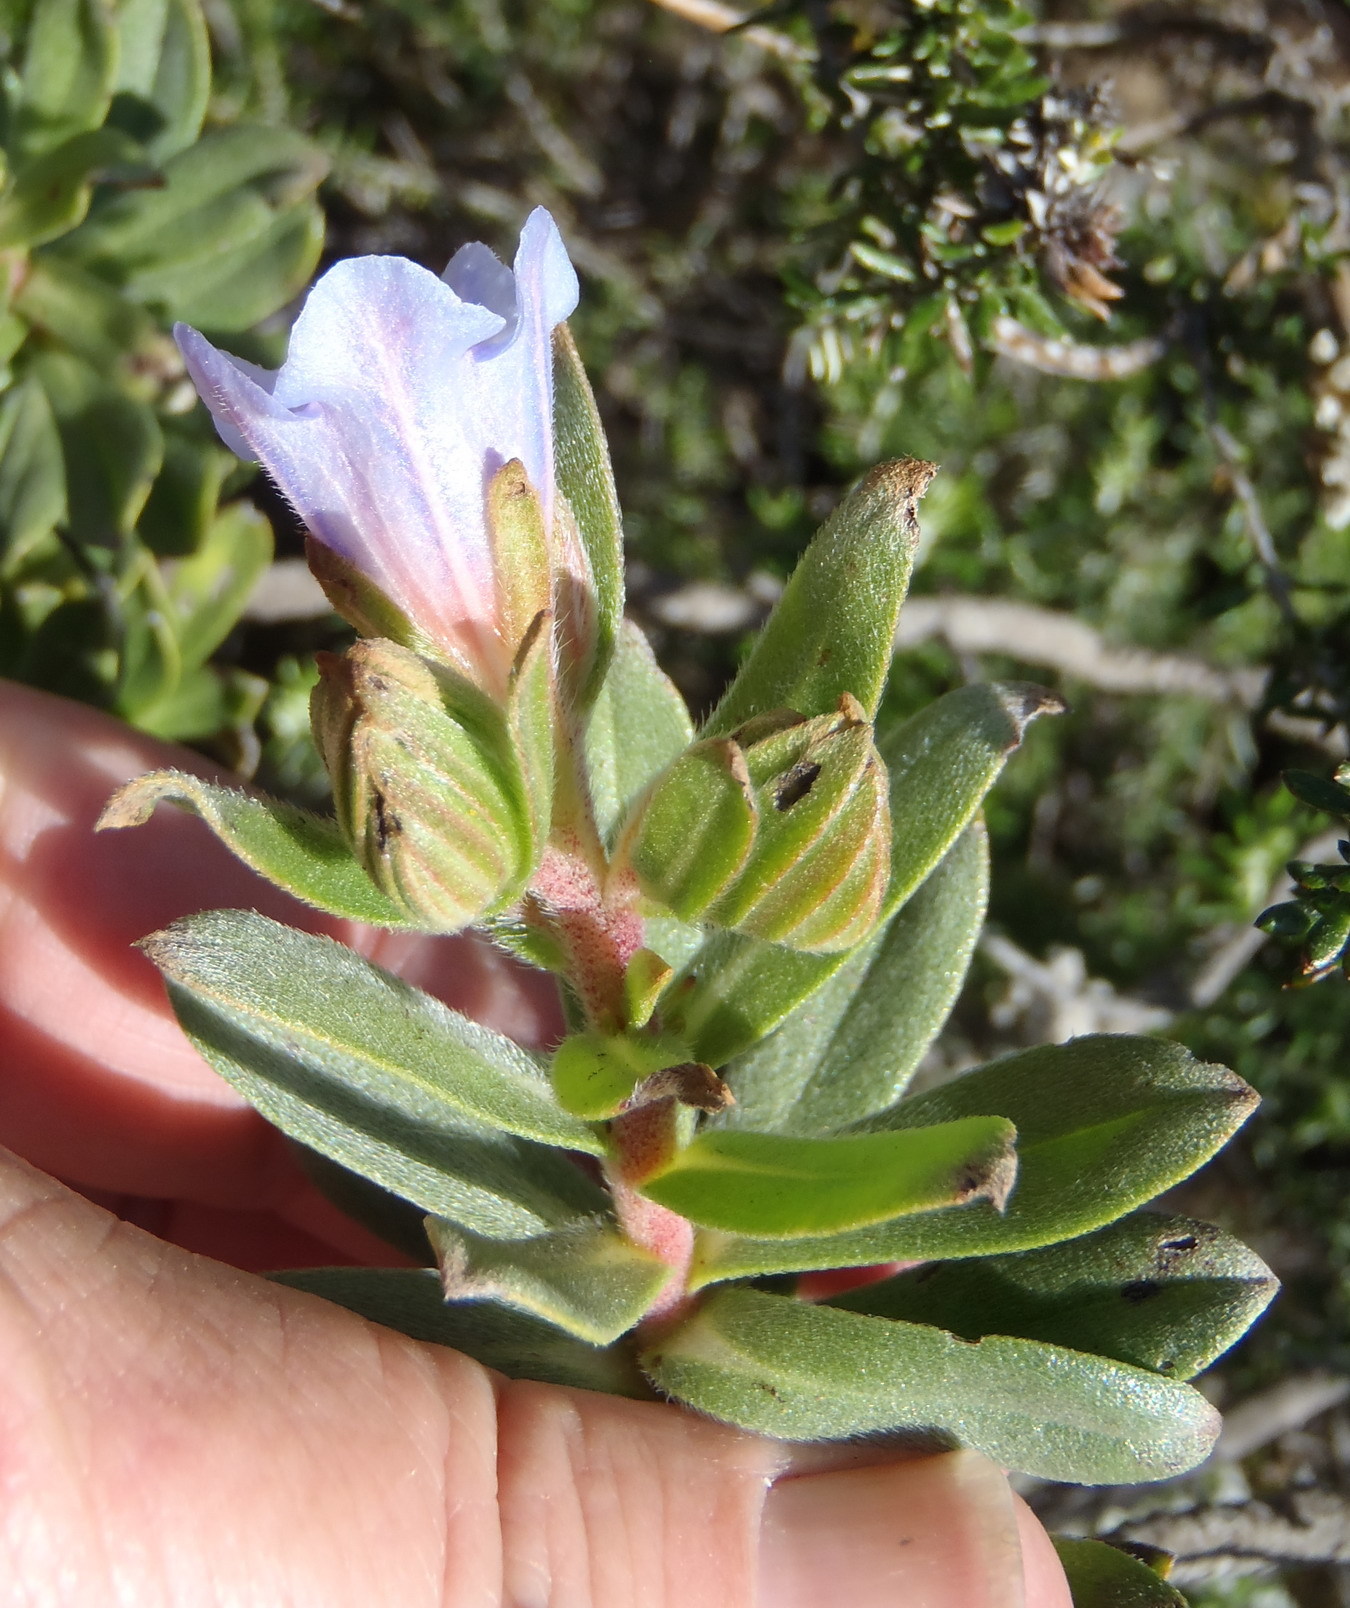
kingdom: Plantae
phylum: Tracheophyta
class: Magnoliopsida
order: Boraginales
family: Boraginaceae
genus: Lobostemon
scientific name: Lobostemon fruticosus
